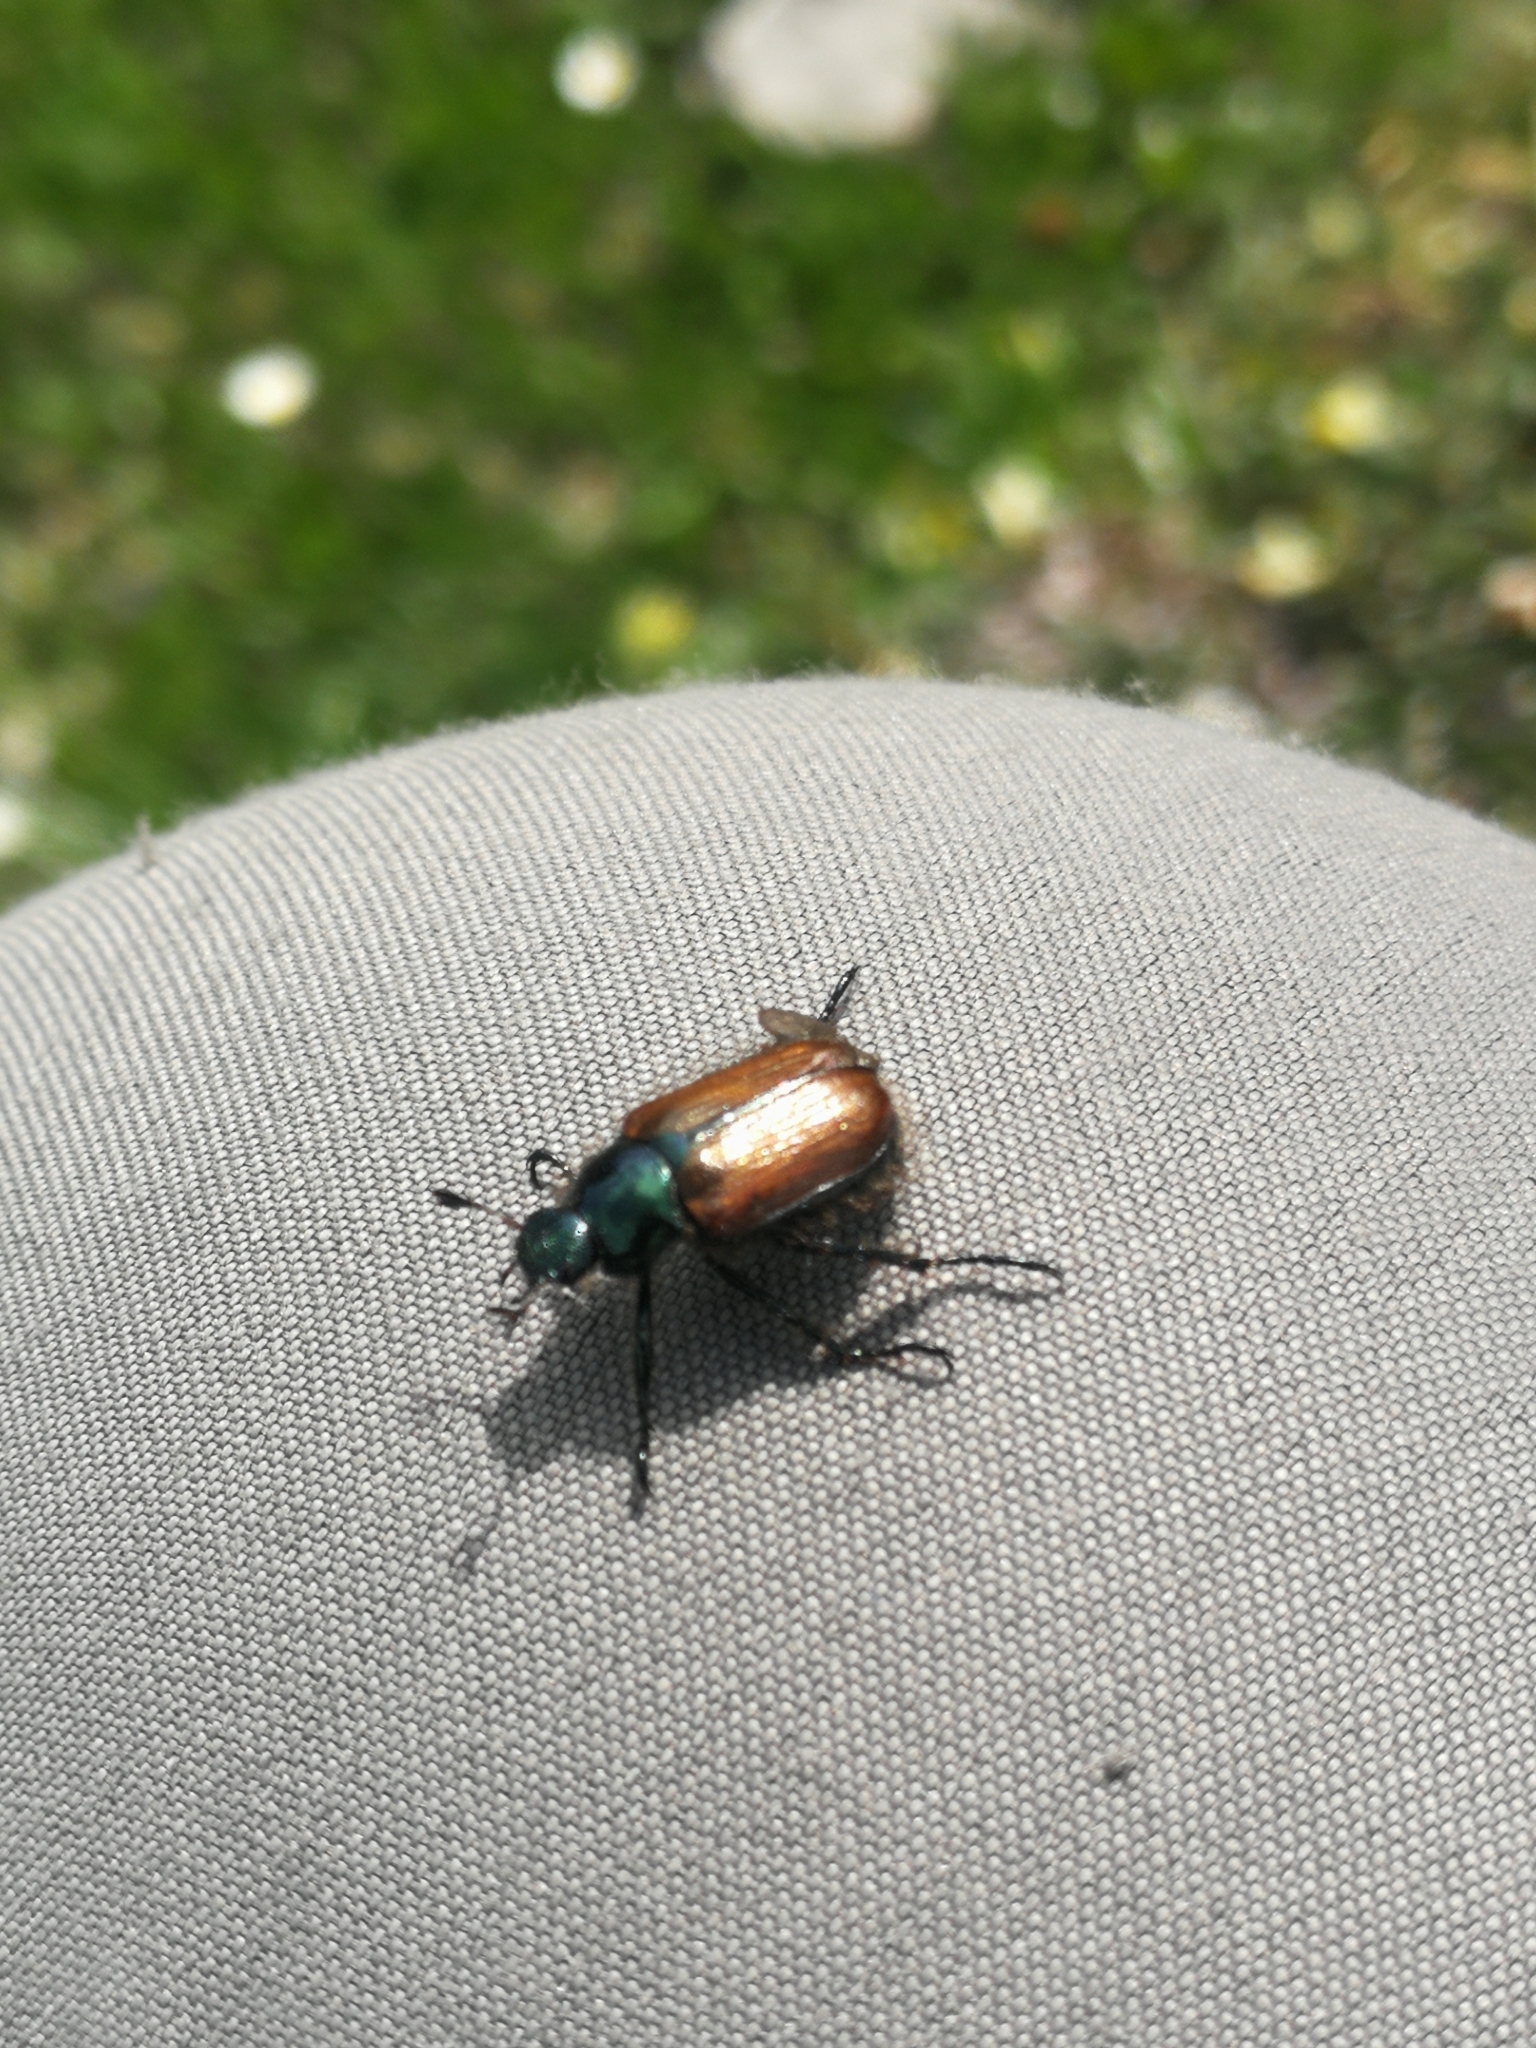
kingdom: Animalia
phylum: Arthropoda
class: Insecta
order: Coleoptera
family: Scarabaeidae
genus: Phyllopertha
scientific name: Phyllopertha horticola
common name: Garden chafer
